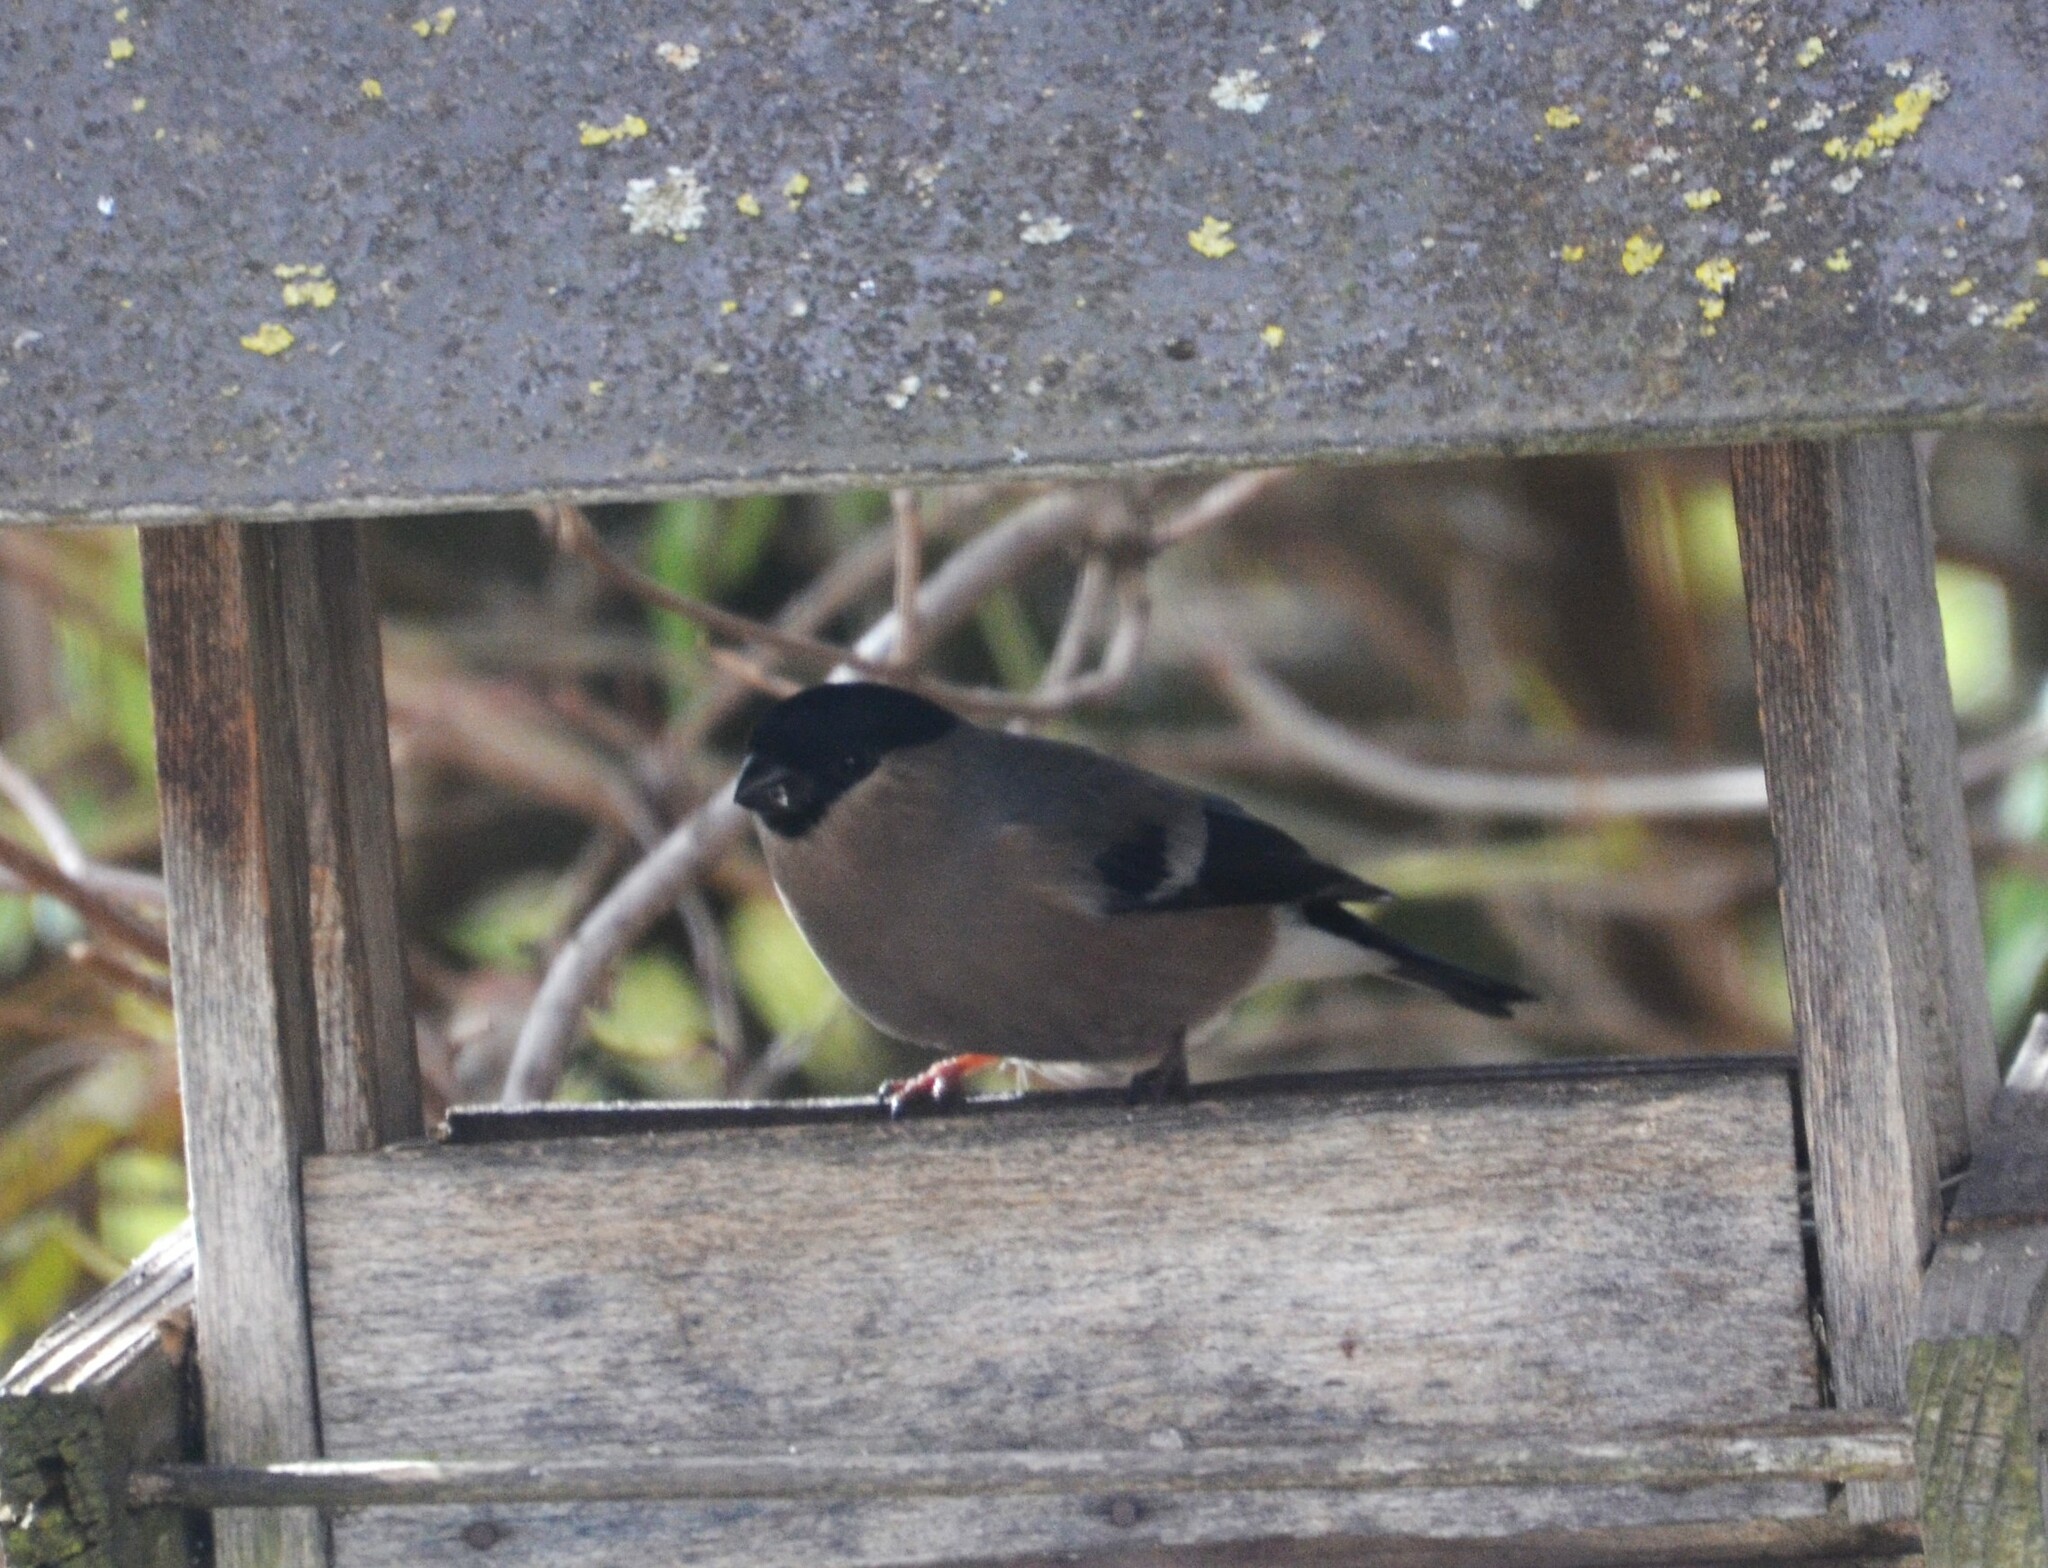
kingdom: Animalia
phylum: Chordata
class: Aves
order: Passeriformes
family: Fringillidae
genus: Pyrrhula
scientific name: Pyrrhula pyrrhula
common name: Eurasian bullfinch
